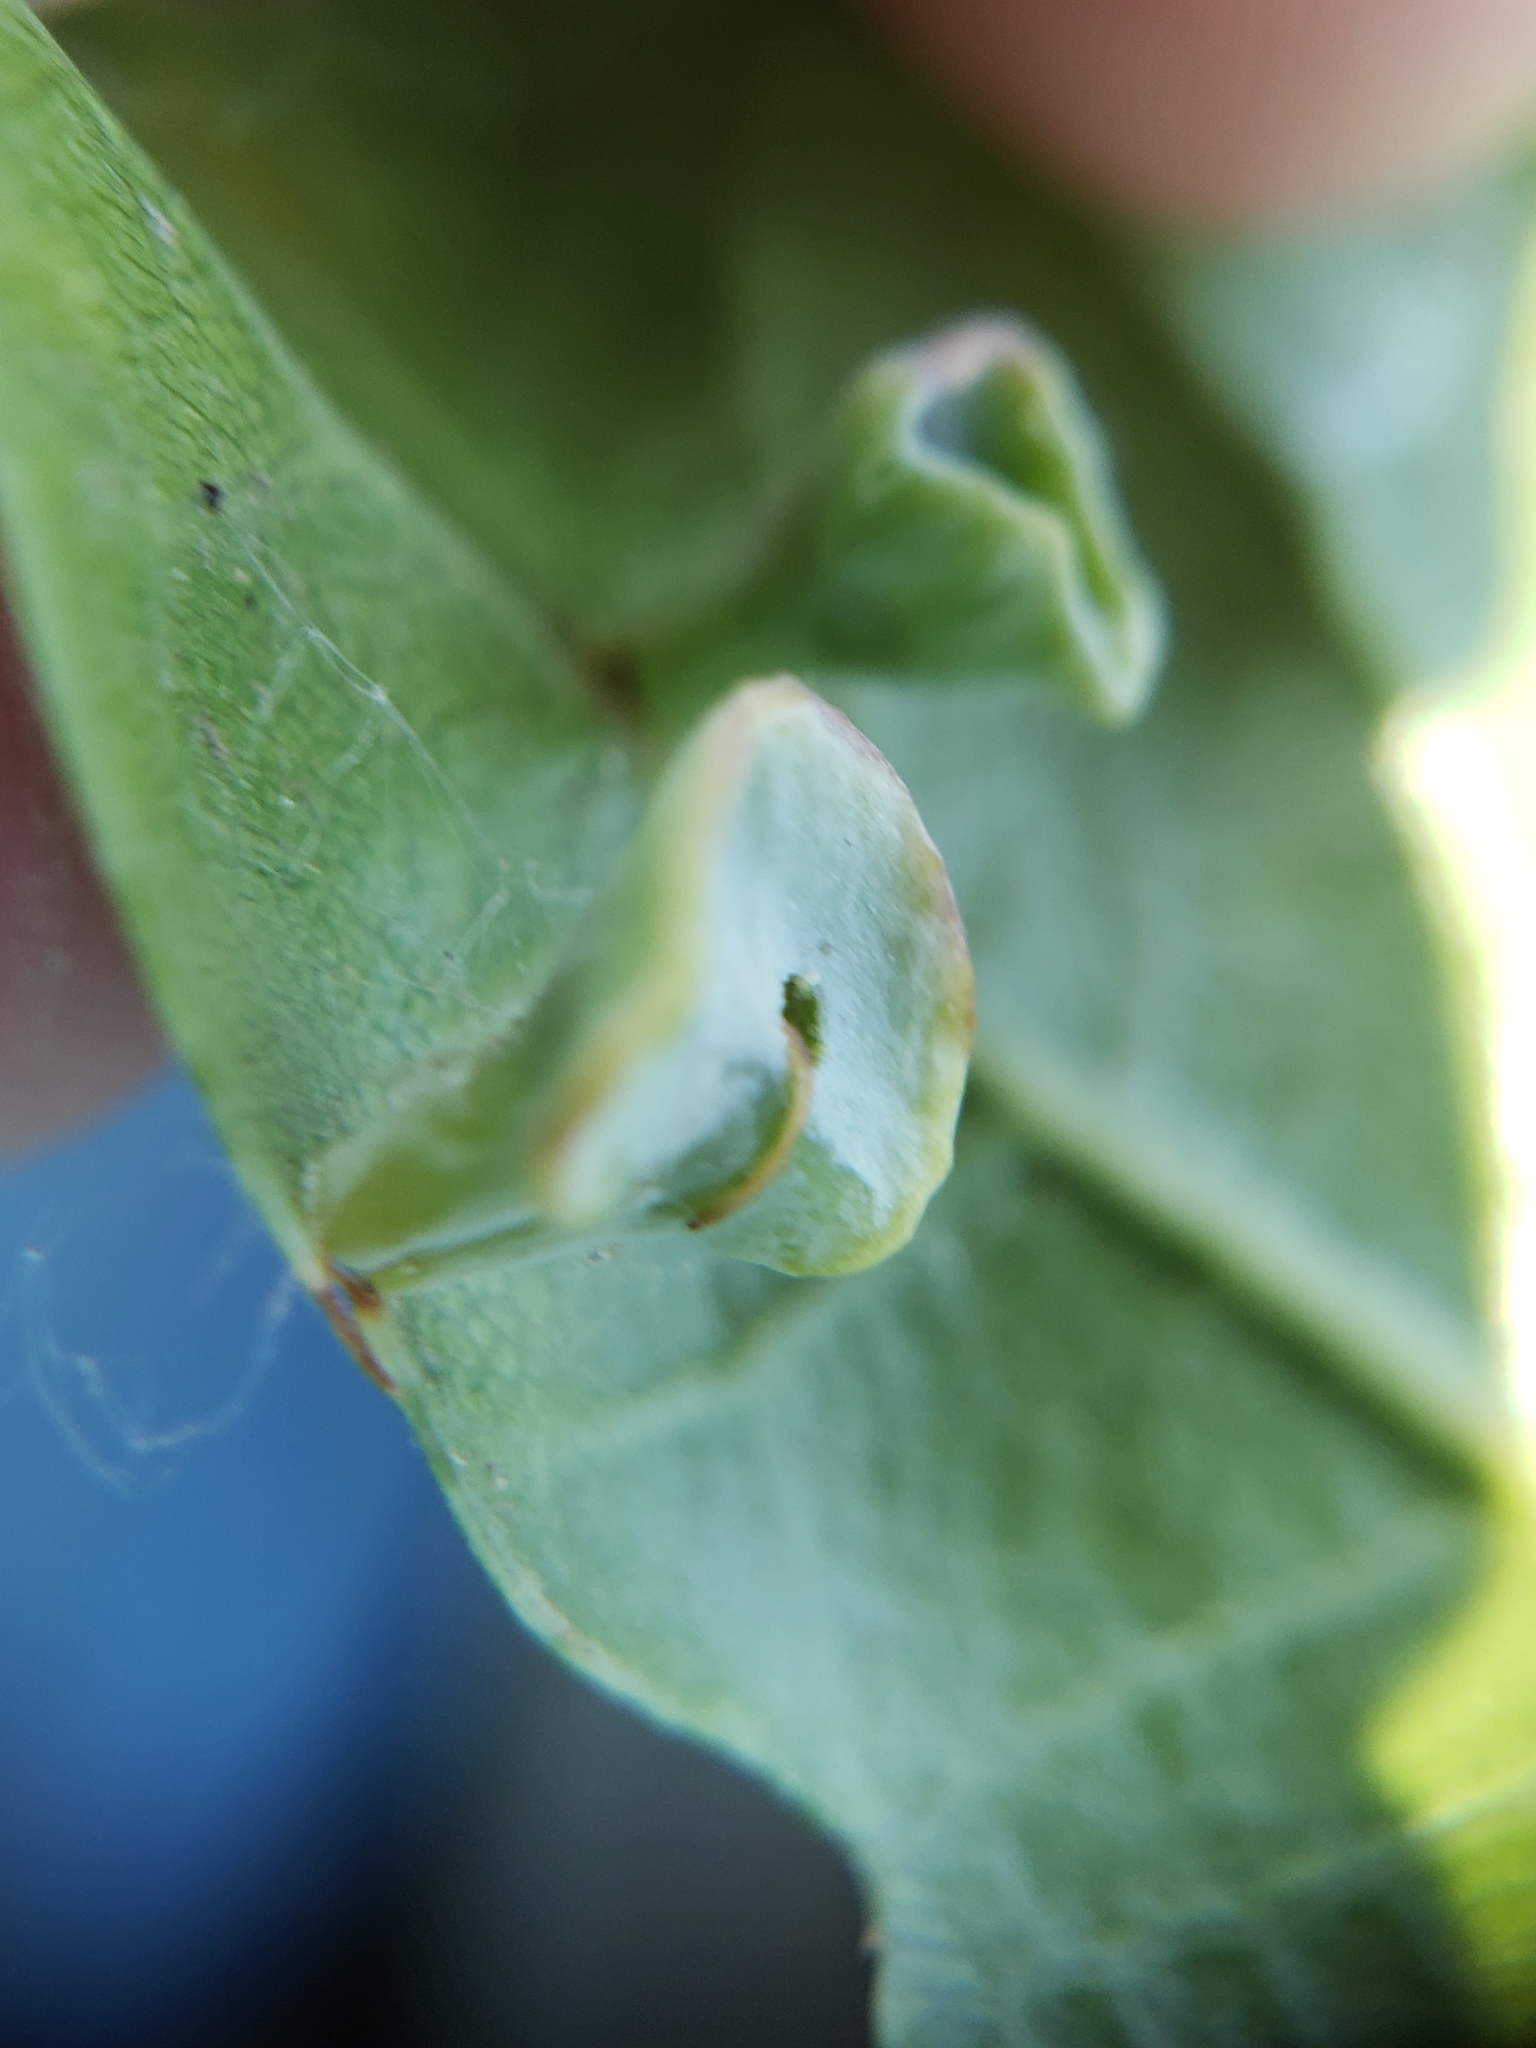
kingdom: Animalia
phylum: Arthropoda
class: Insecta
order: Hymenoptera
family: Cynipidae
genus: Amphibolips
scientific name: Amphibolips quercuspomiformis
